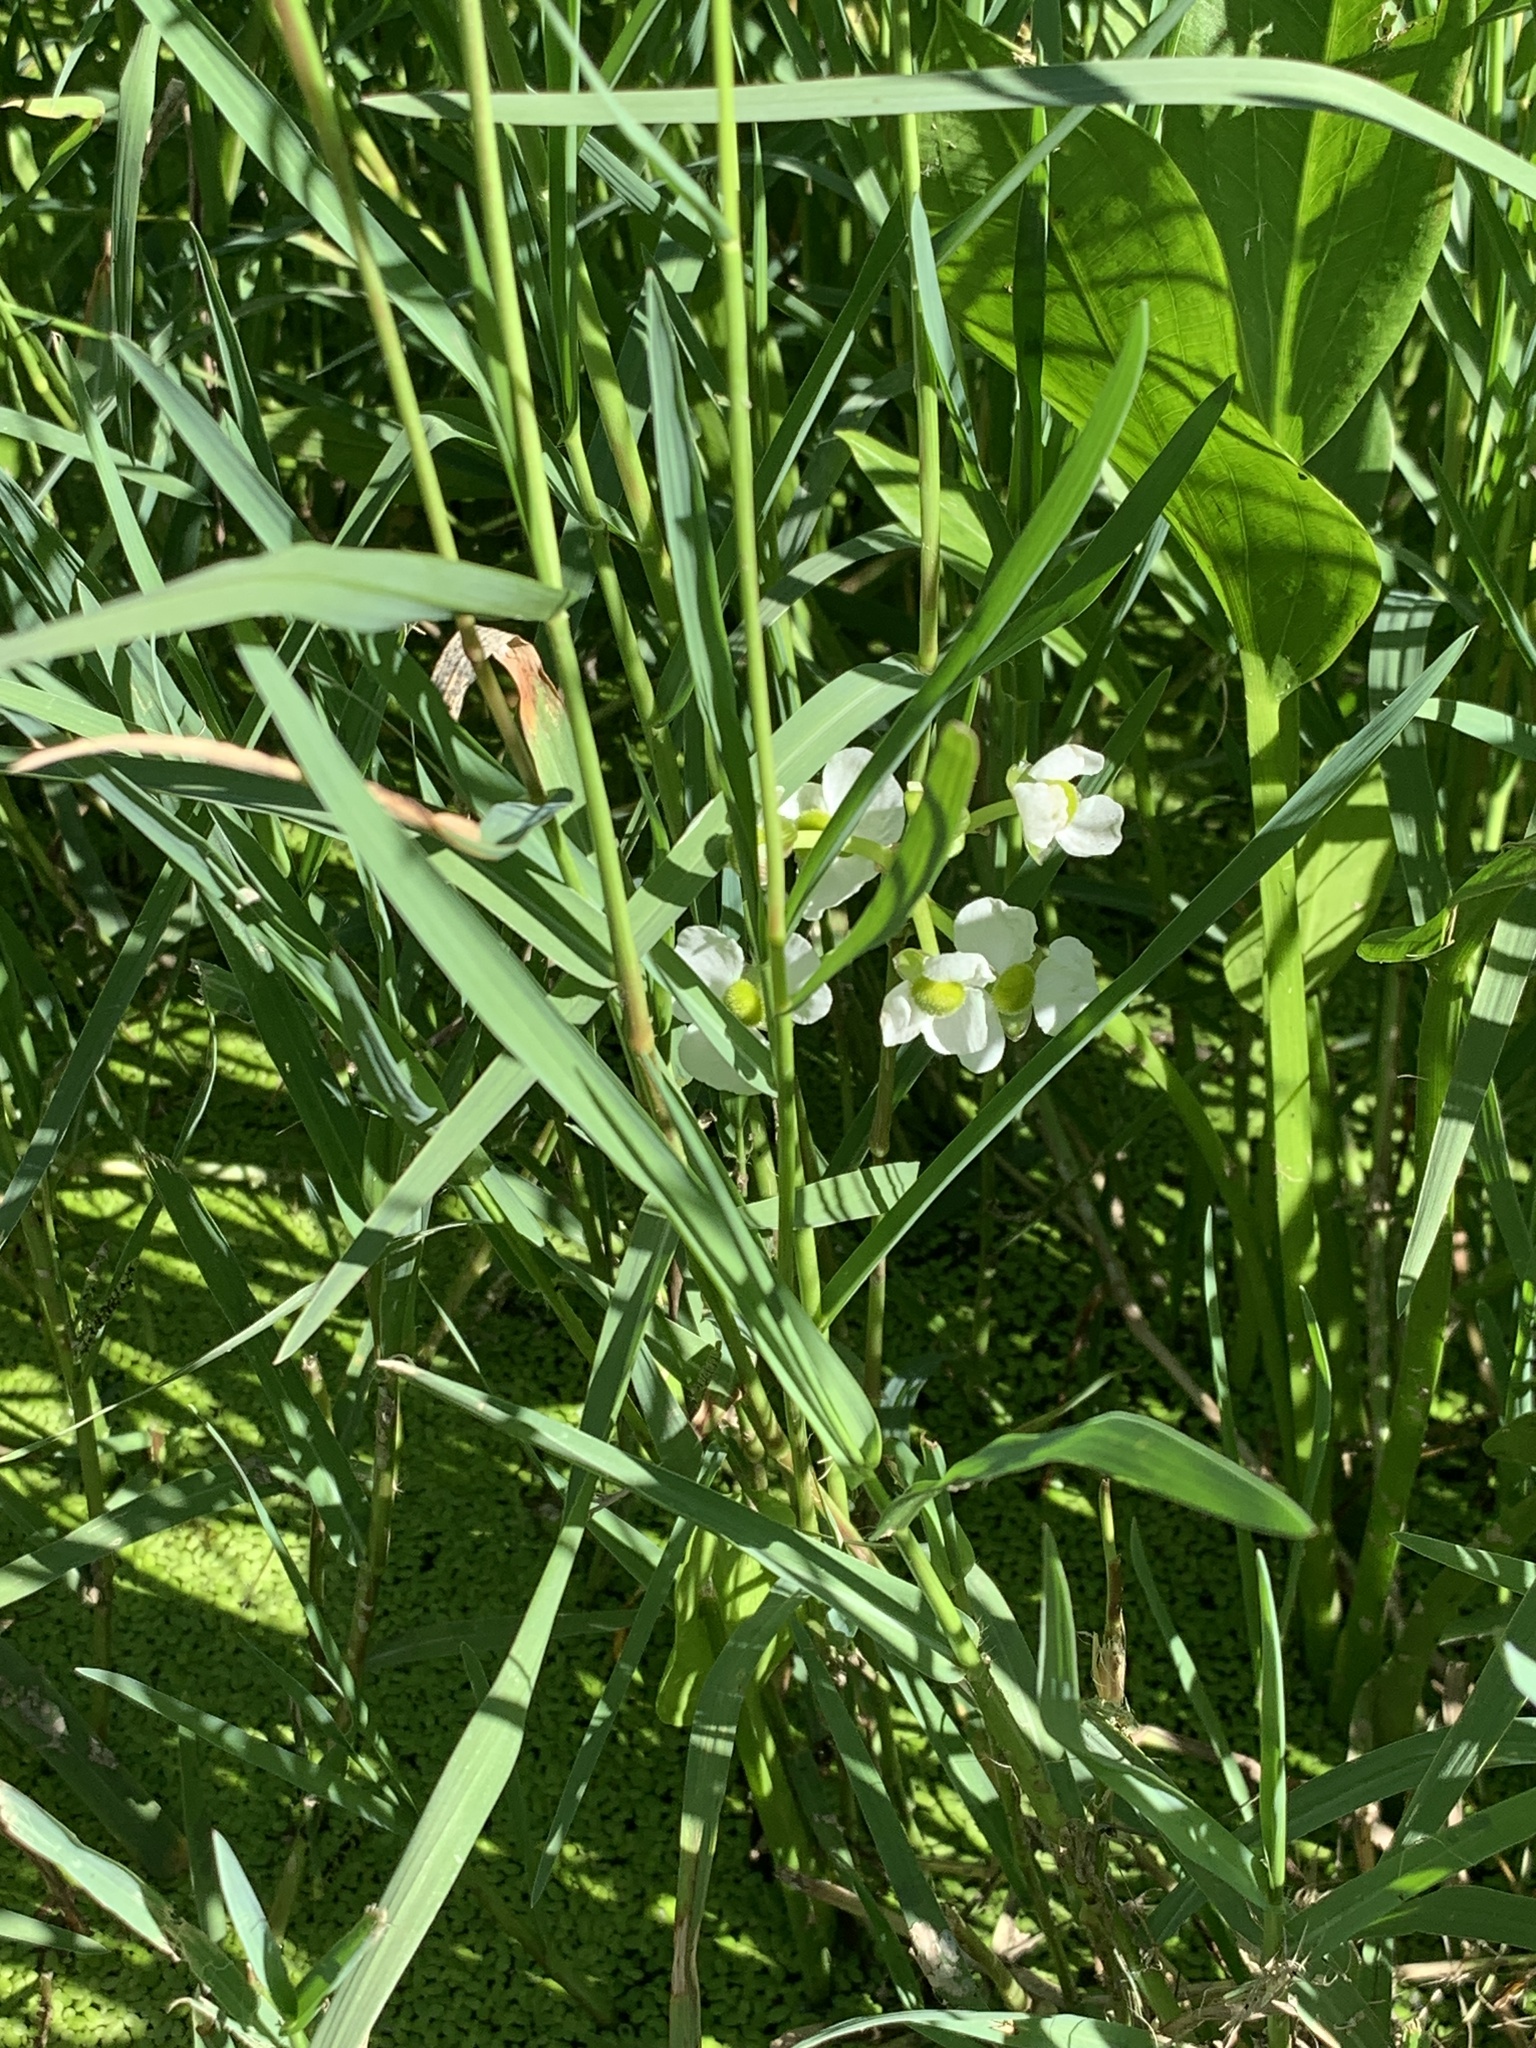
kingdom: Plantae
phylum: Tracheophyta
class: Liliopsida
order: Alismatales
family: Alismataceae
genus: Sagittaria
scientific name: Sagittaria platyphylla
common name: Broad-leaf arrowhead
